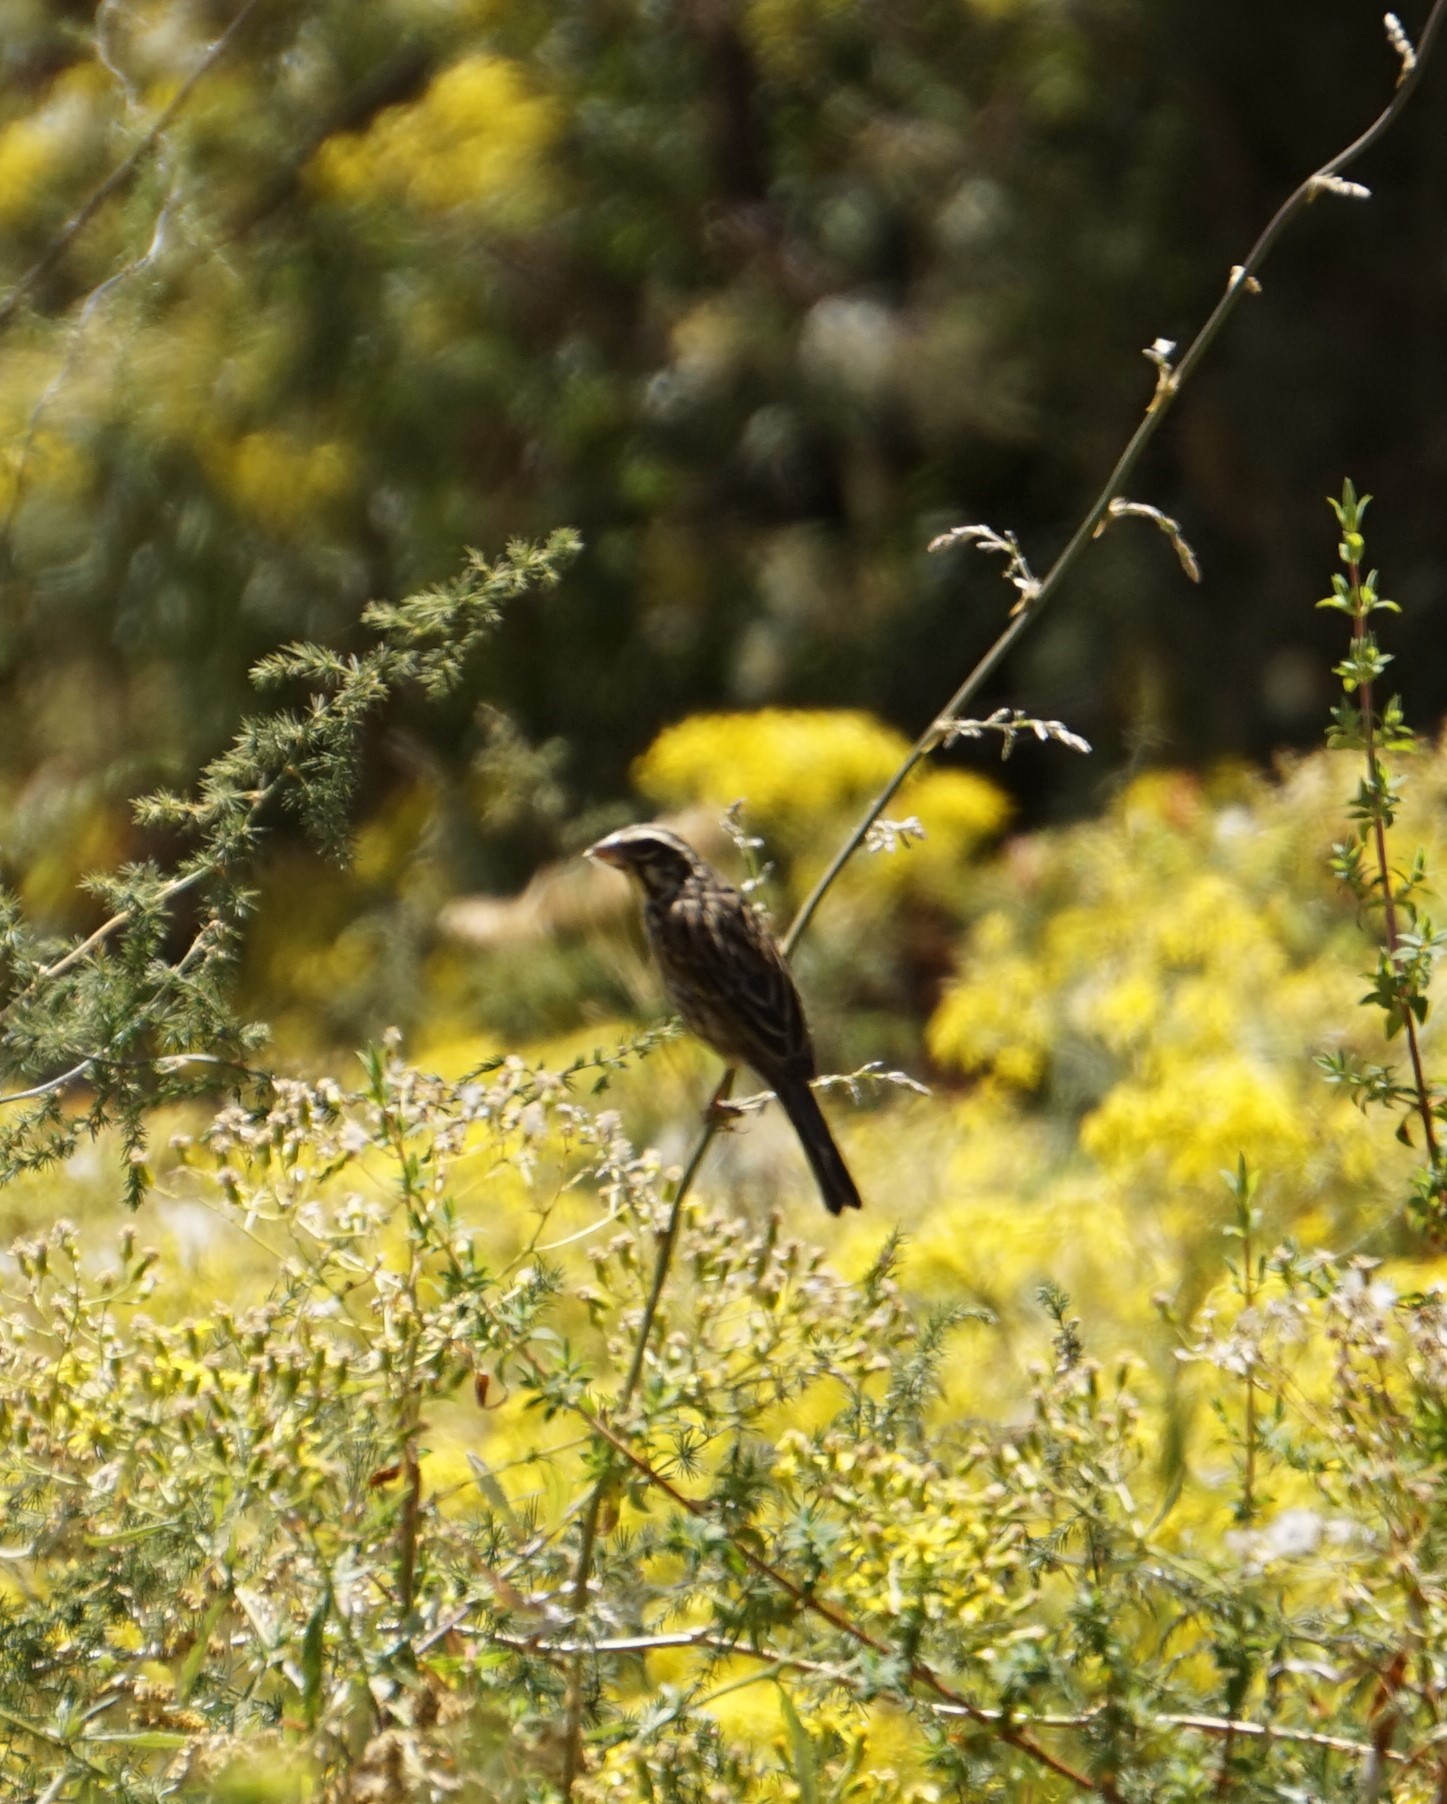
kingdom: Animalia
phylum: Chordata
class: Aves
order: Passeriformes
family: Fringillidae
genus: Crithagra
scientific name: Crithagra striolata
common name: Streaky seedeater
